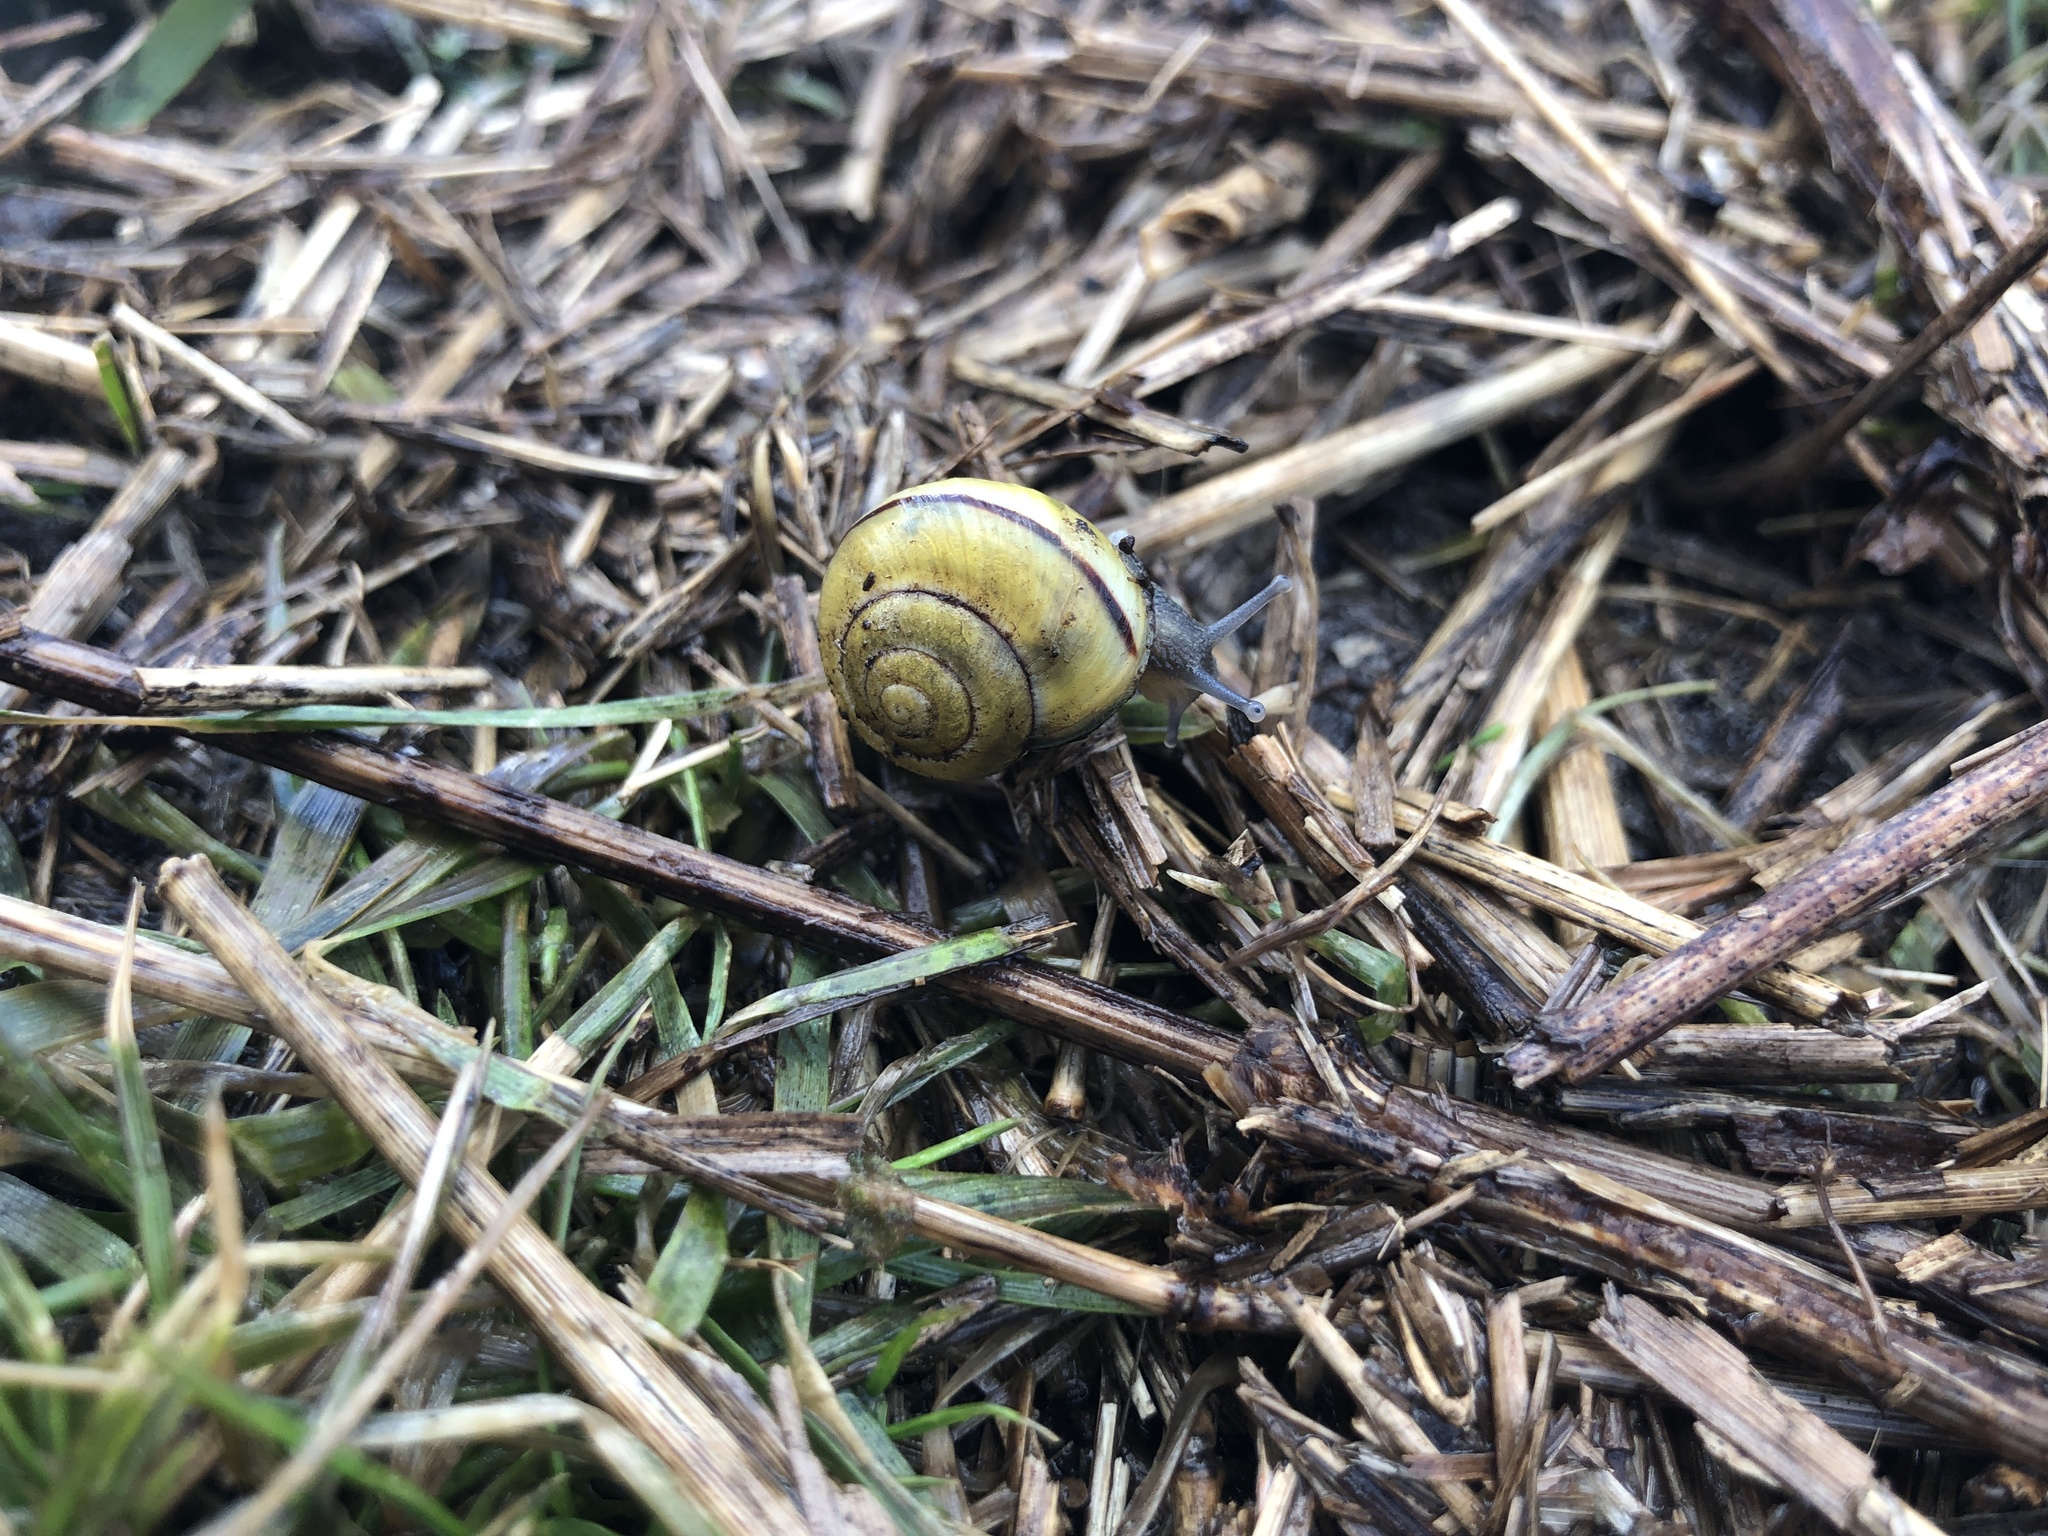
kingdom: Animalia
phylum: Mollusca
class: Gastropoda
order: Stylommatophora
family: Helicidae
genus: Cepaea
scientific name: Cepaea nemoralis
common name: Grovesnail
